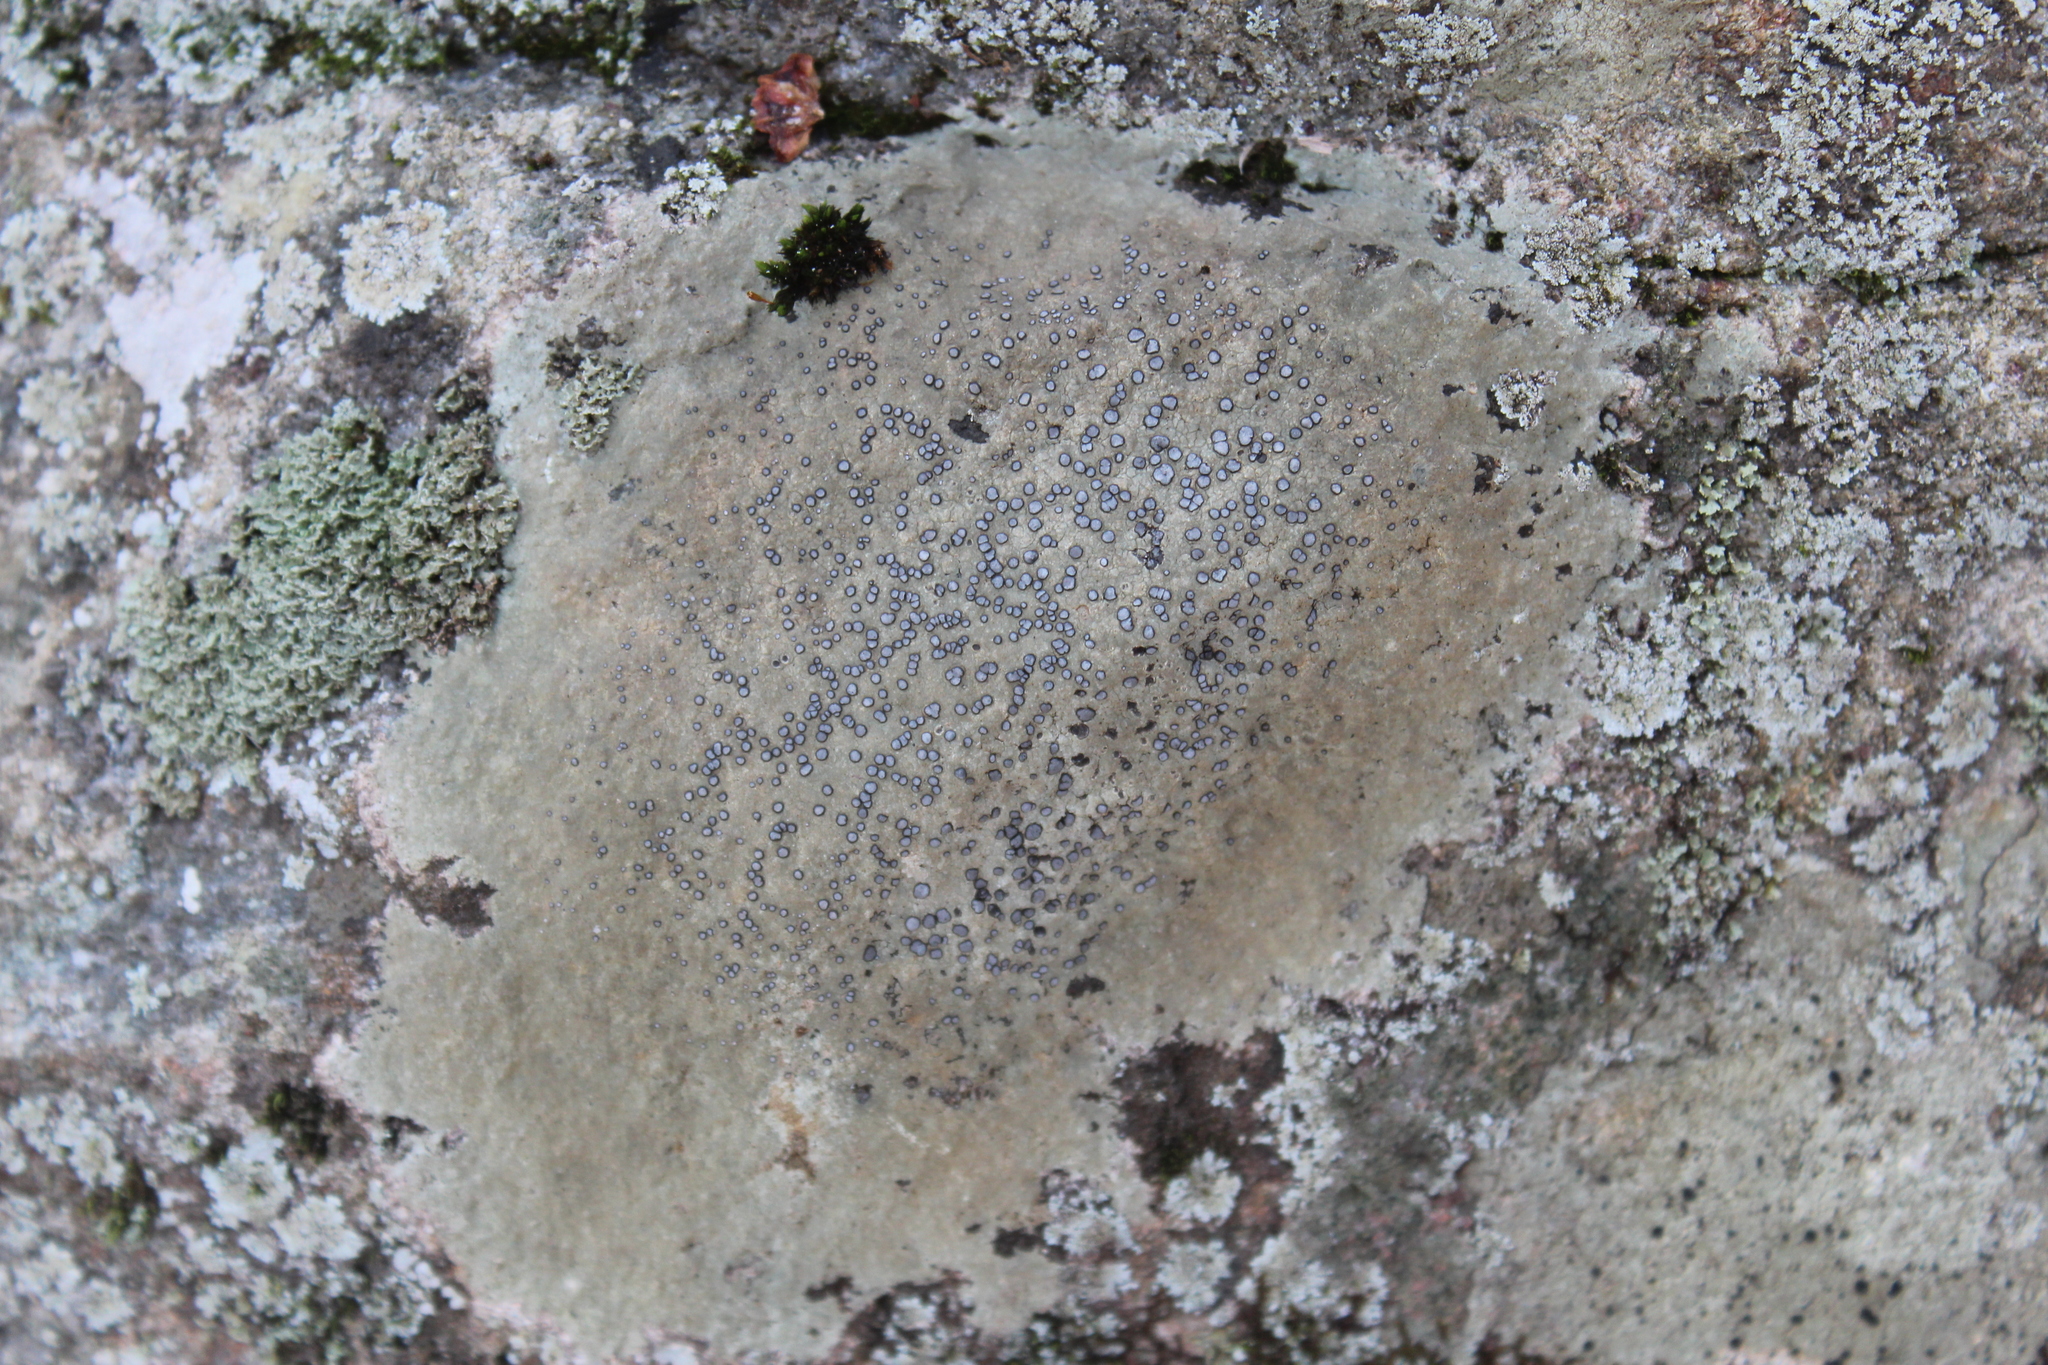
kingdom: Fungi
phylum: Ascomycota
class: Lecanoromycetes
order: Lecideales
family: Lecideaceae
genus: Porpidia
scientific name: Porpidia albocaerulescens
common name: Smokey-eyed boulder lichen
